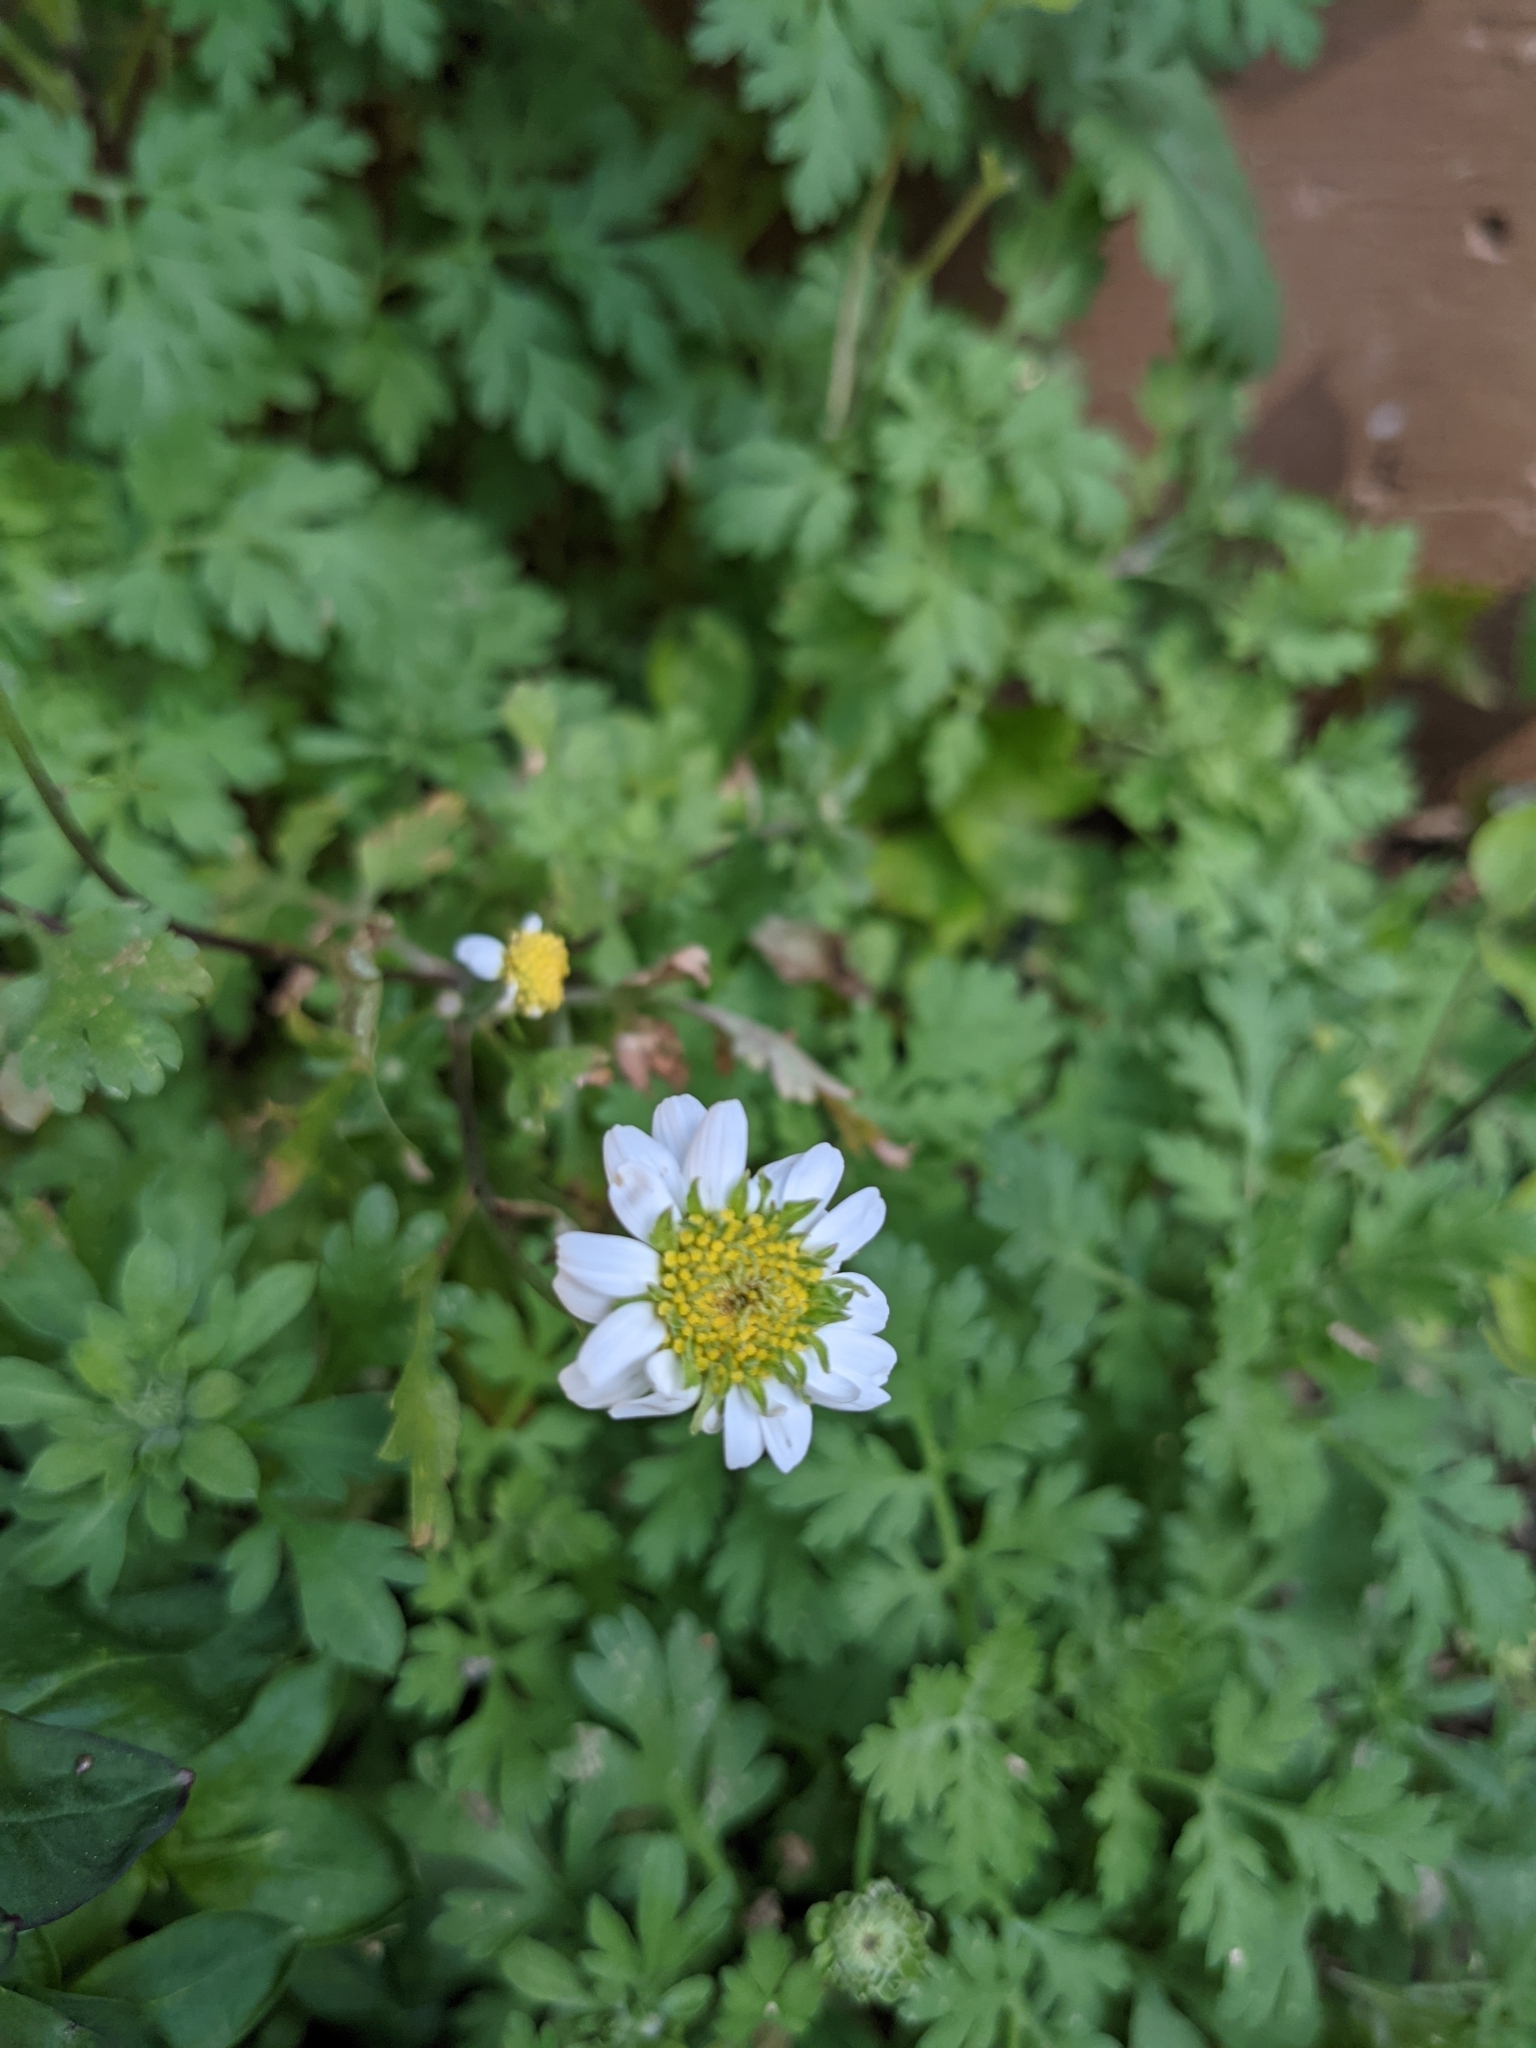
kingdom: Plantae
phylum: Tracheophyta
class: Magnoliopsida
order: Asterales
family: Asteraceae
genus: Tanacetum
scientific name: Tanacetum parthenium
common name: Feverfew
